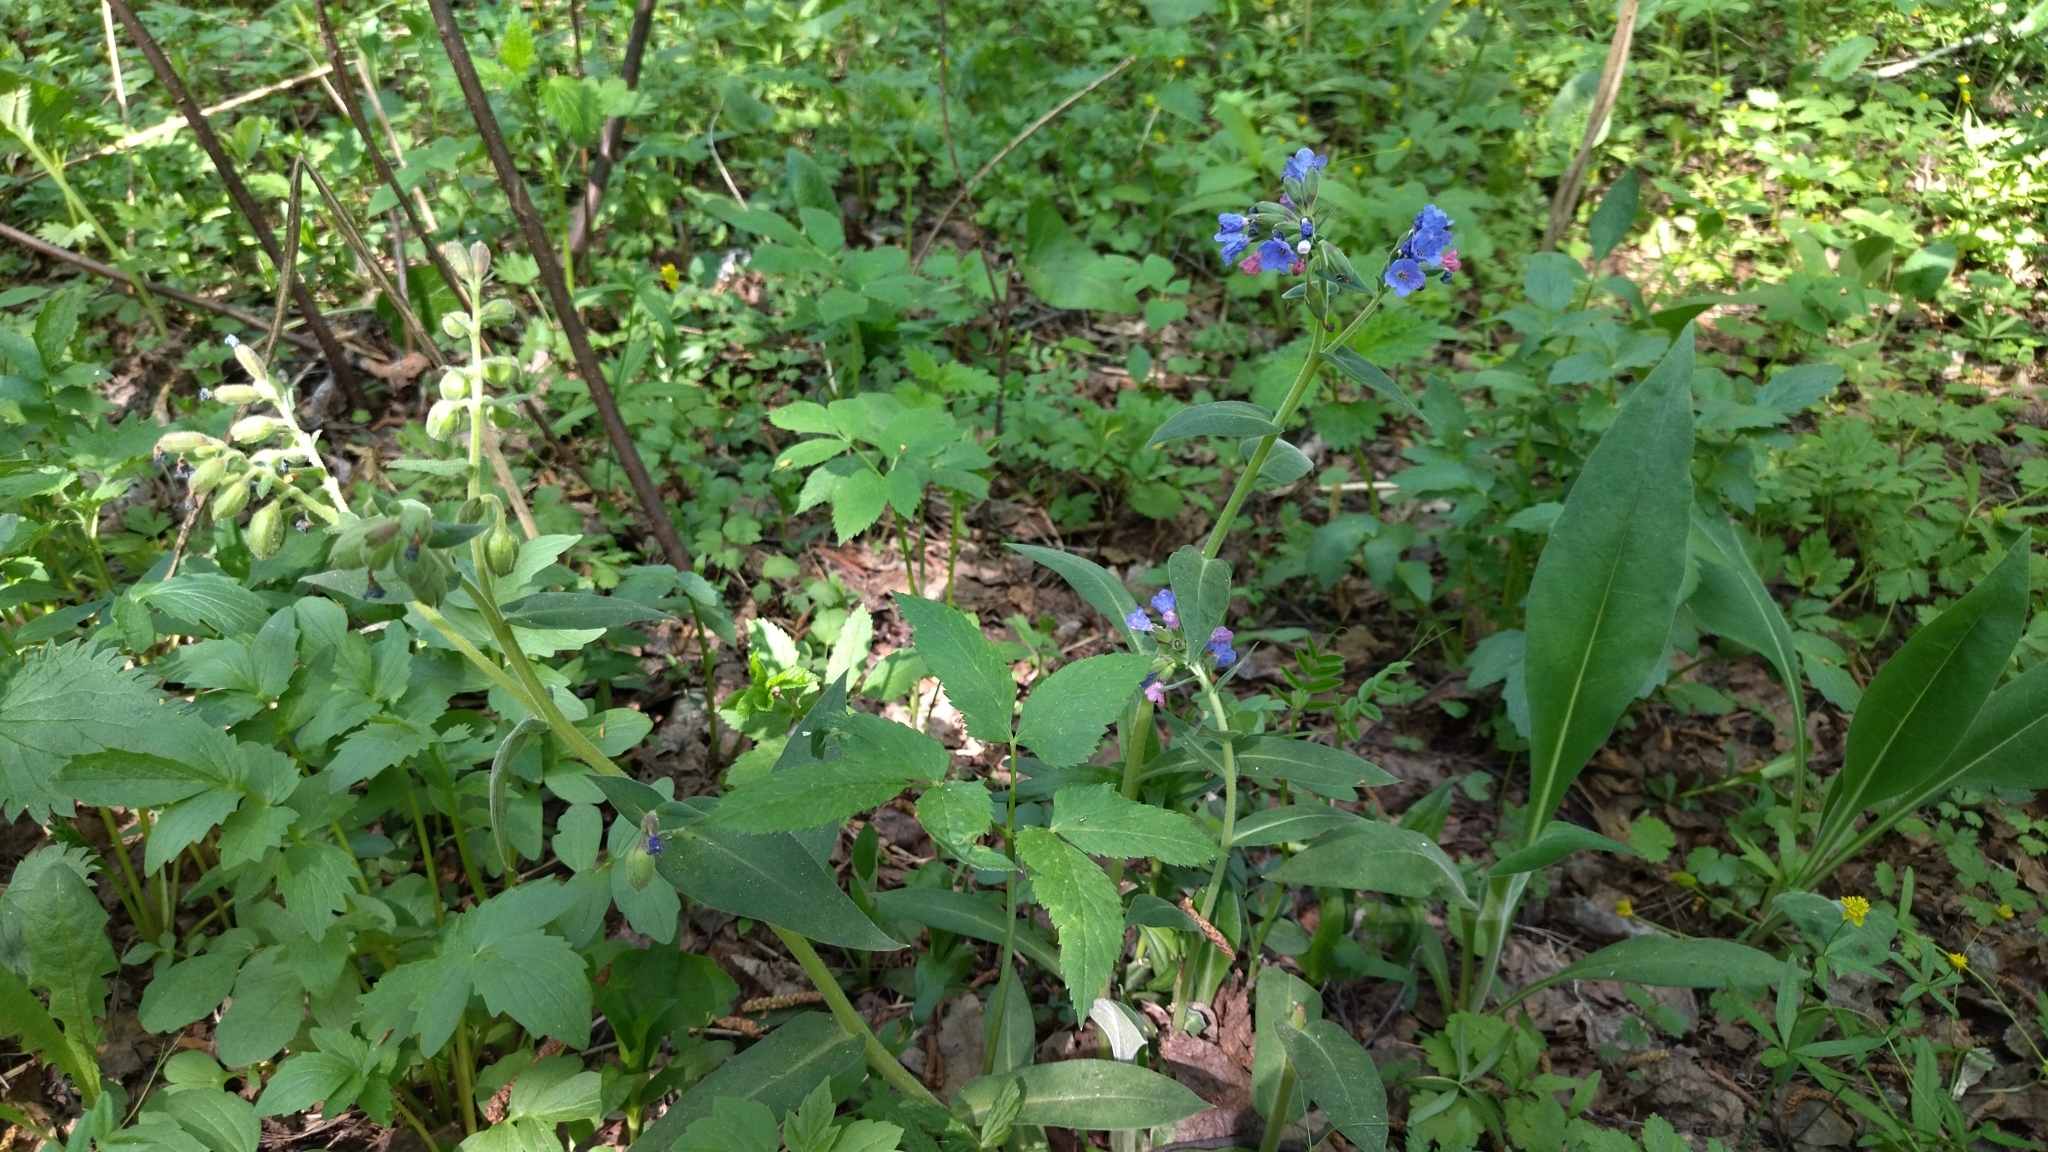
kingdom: Plantae
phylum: Tracheophyta
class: Magnoliopsida
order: Boraginales
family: Boraginaceae
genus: Pulmonaria
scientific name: Pulmonaria mollis
